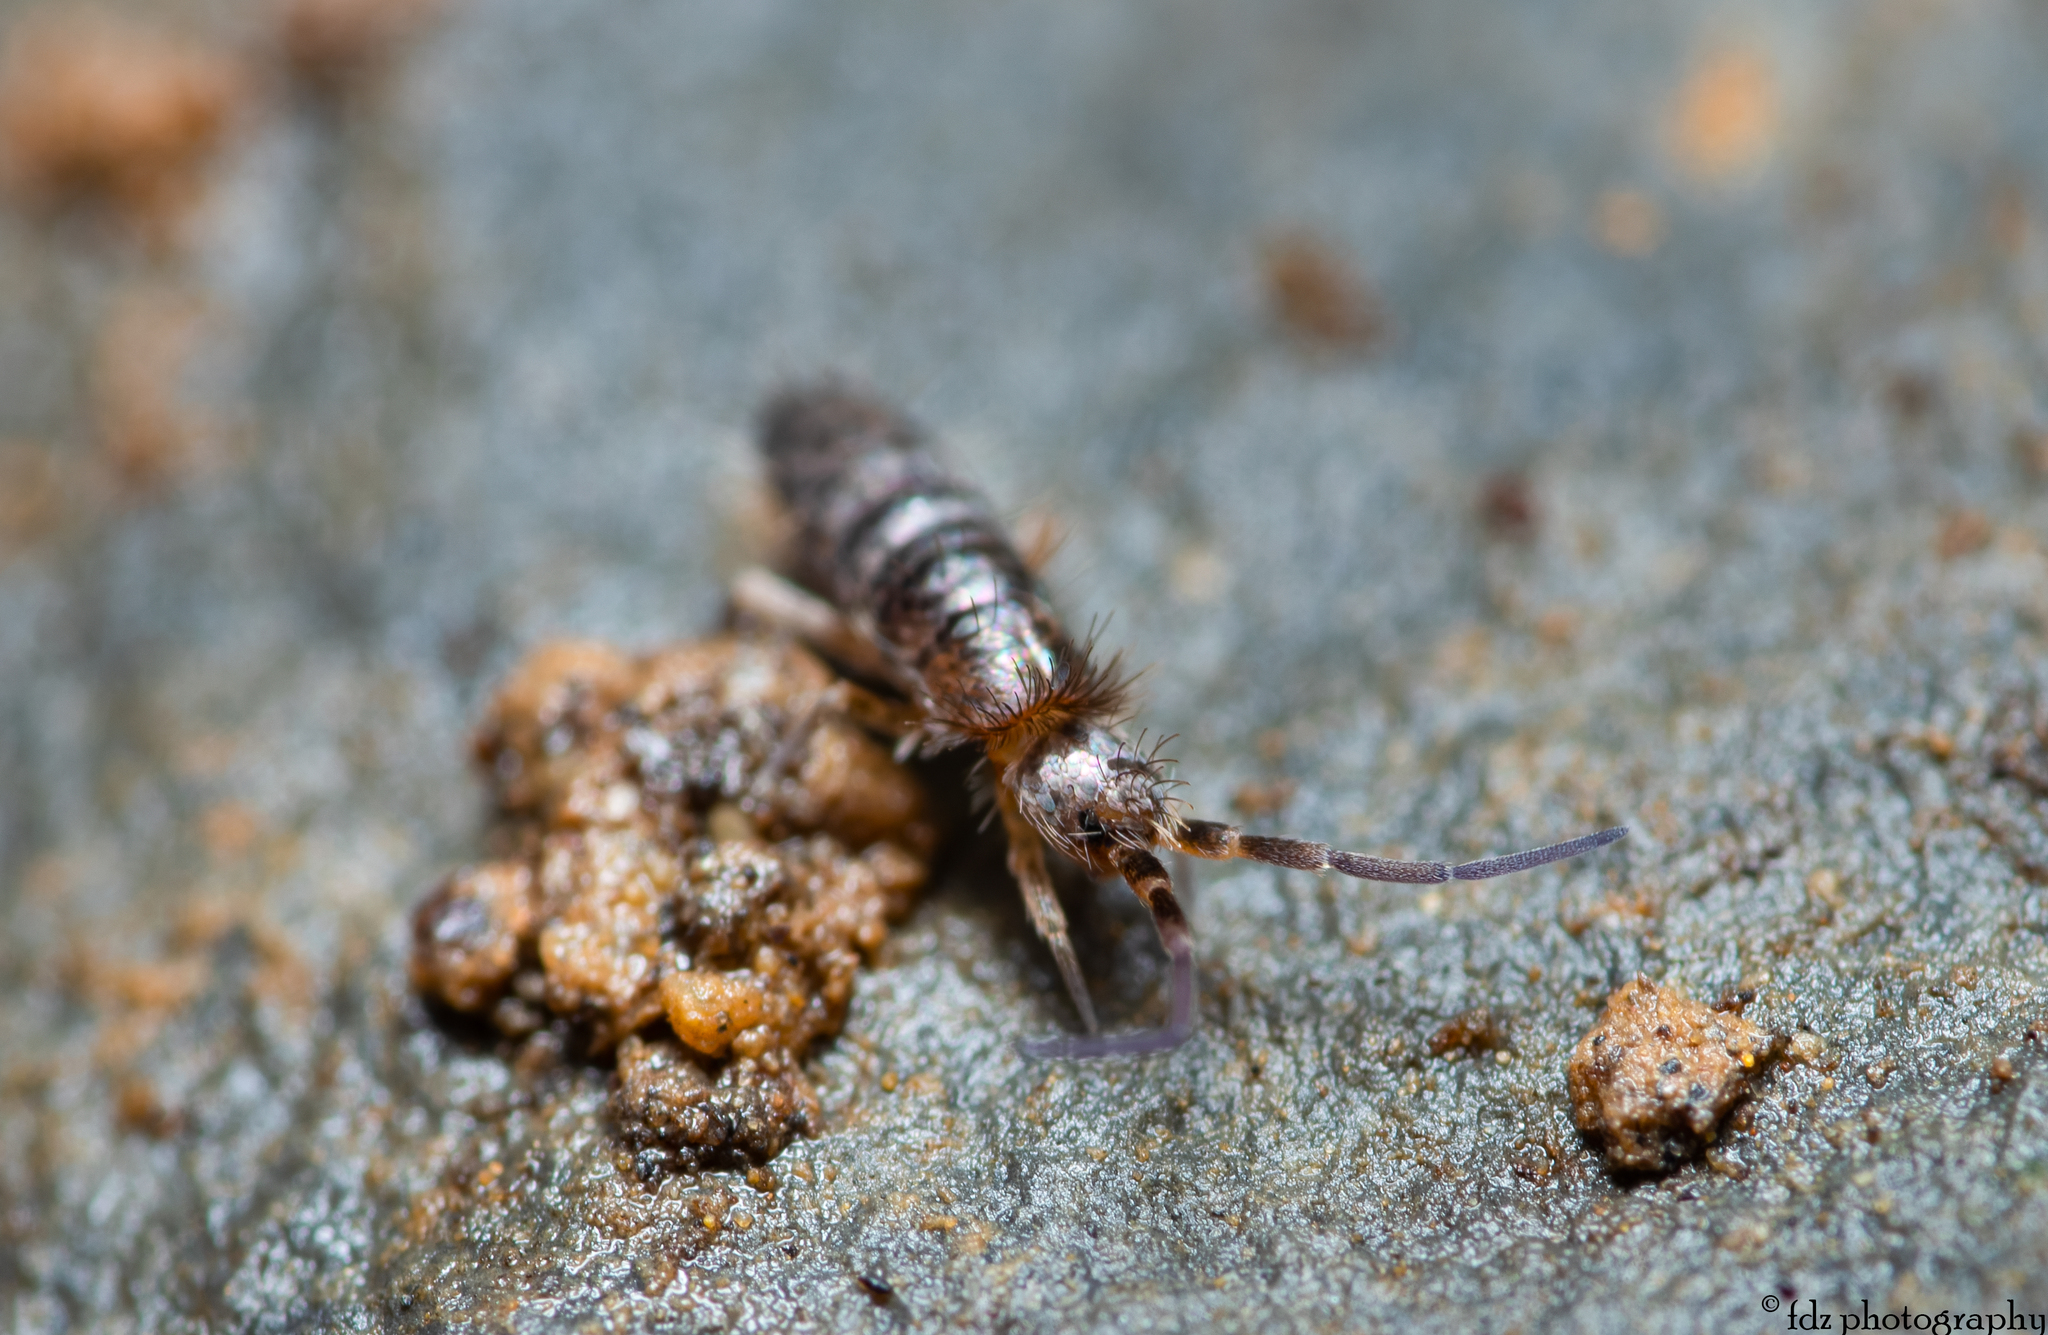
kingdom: Animalia
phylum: Arthropoda
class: Collembola
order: Entomobryomorpha
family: Orchesellidae
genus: Heteromurus
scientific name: Heteromurus major
